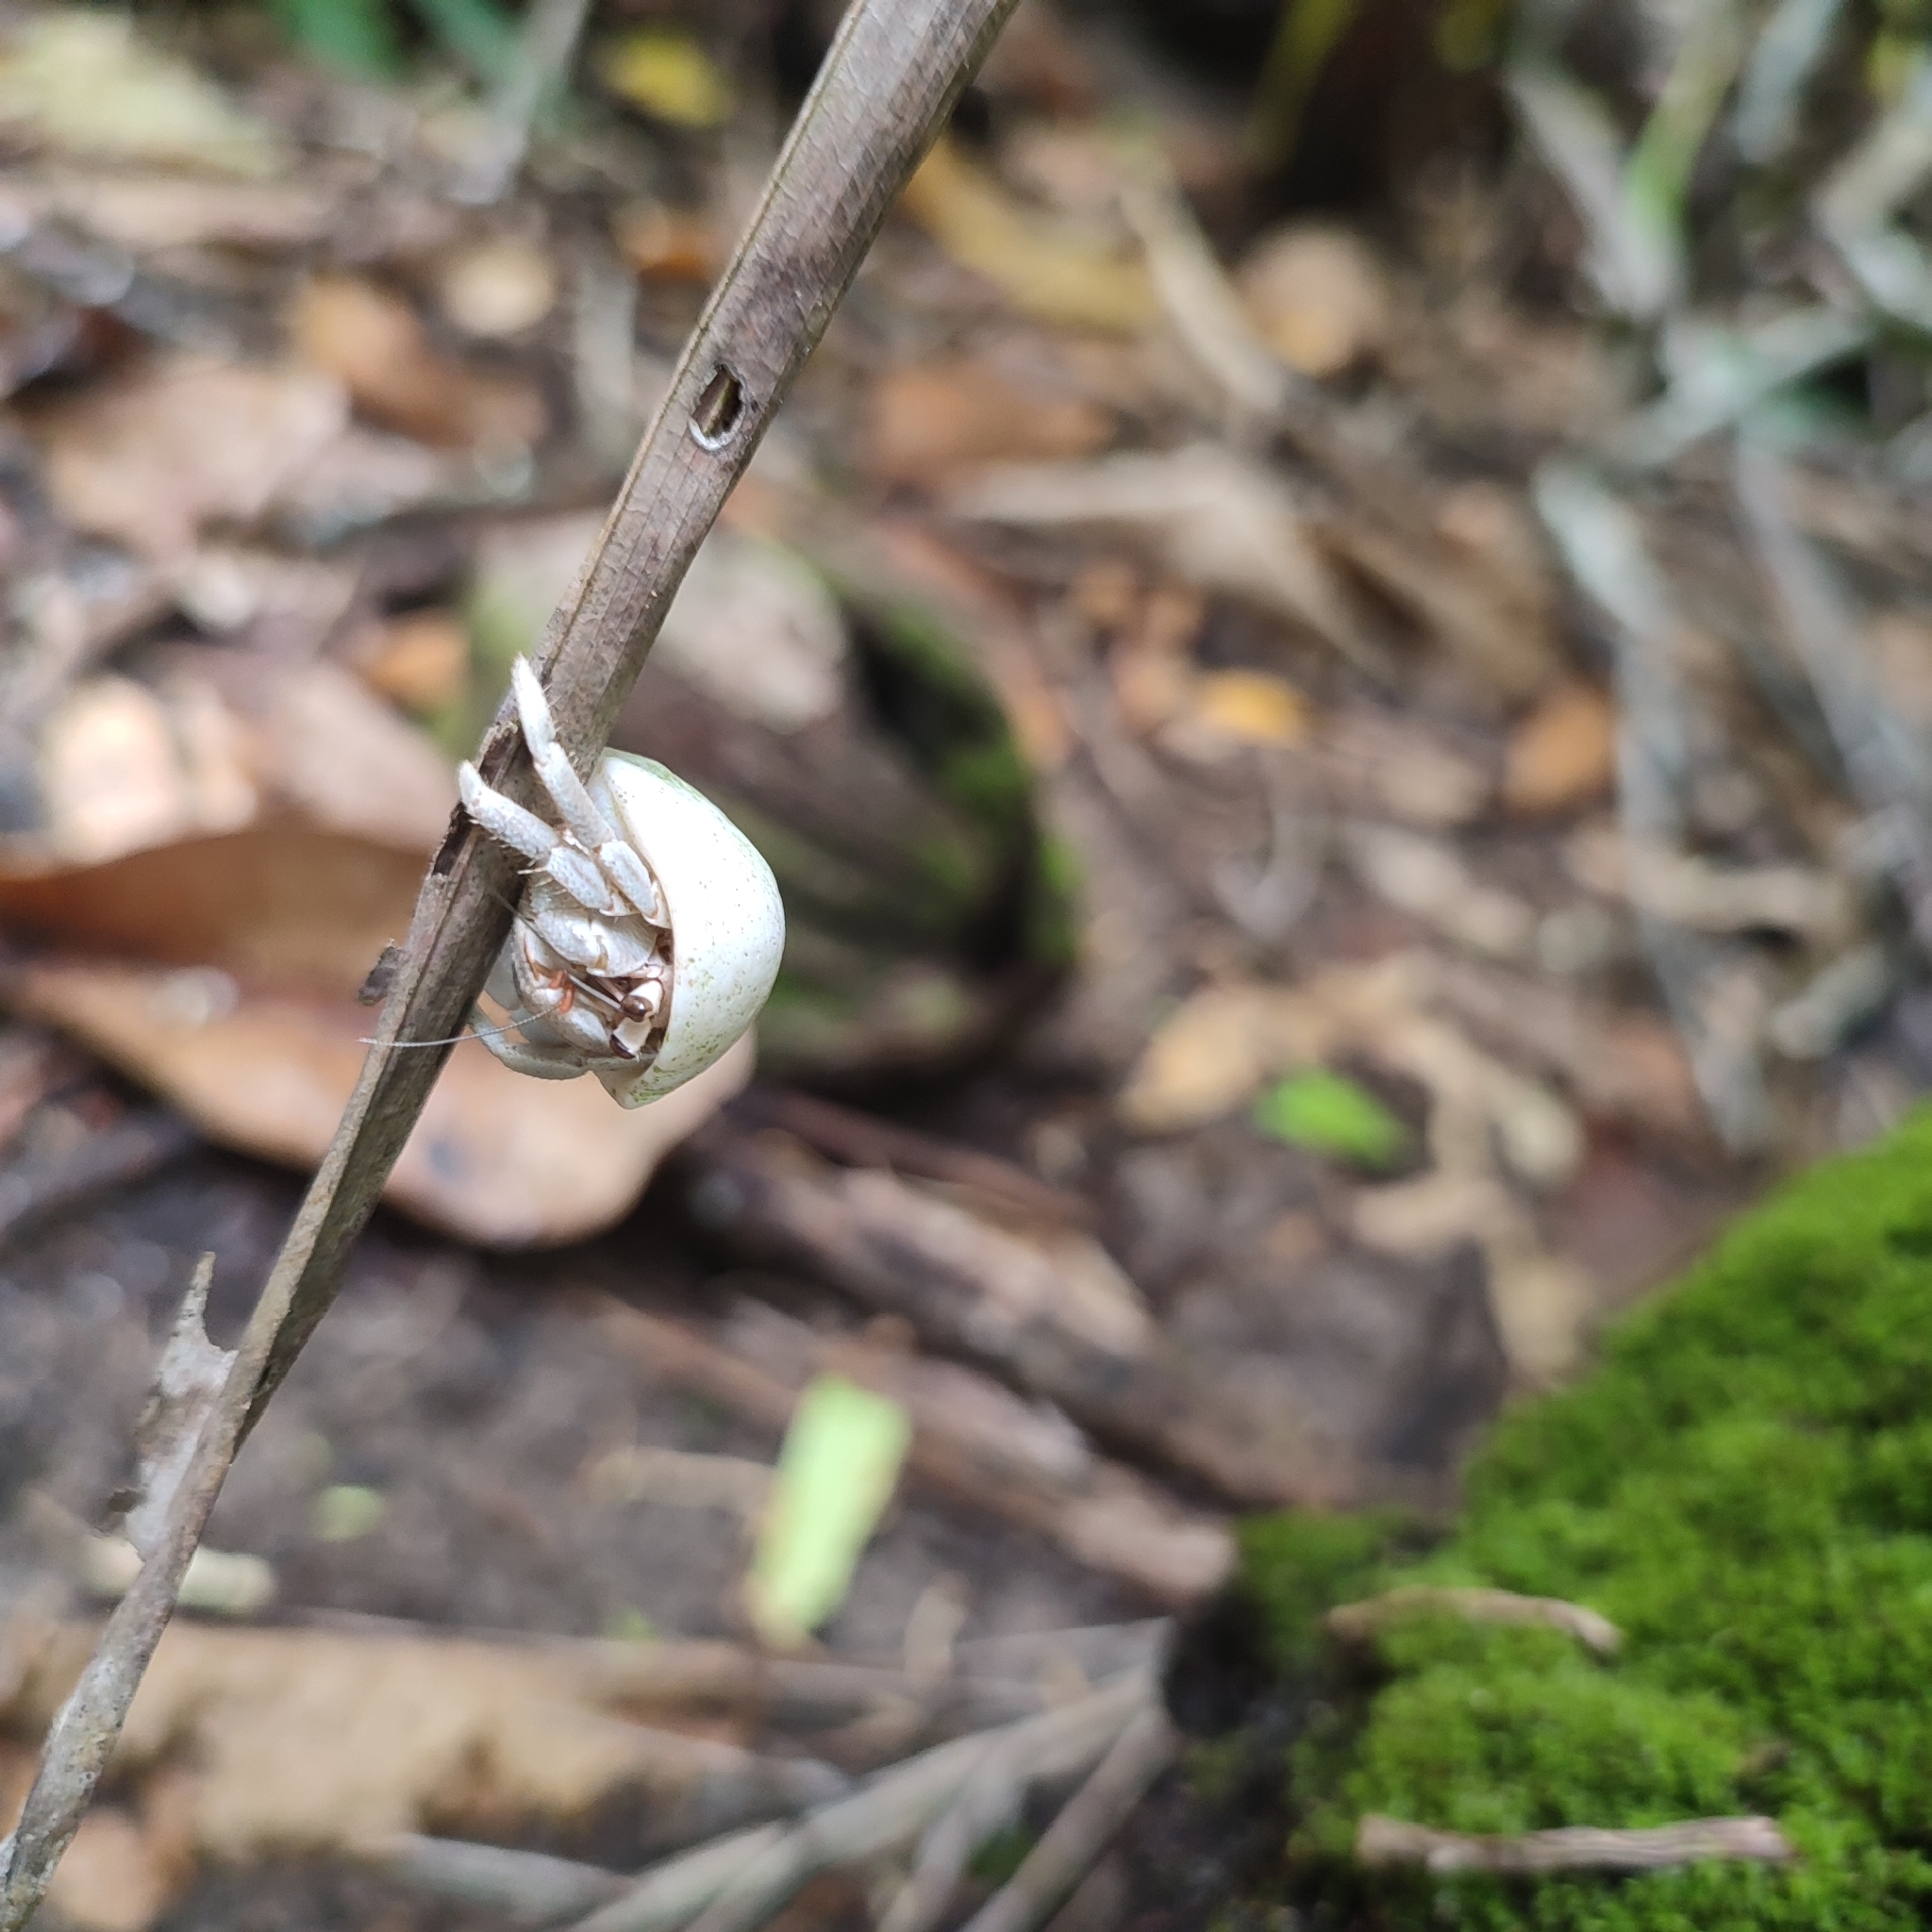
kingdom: Animalia
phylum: Arthropoda
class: Malacostraca
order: Decapoda
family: Coenobitidae
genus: Coenobita
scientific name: Coenobita rugosus
